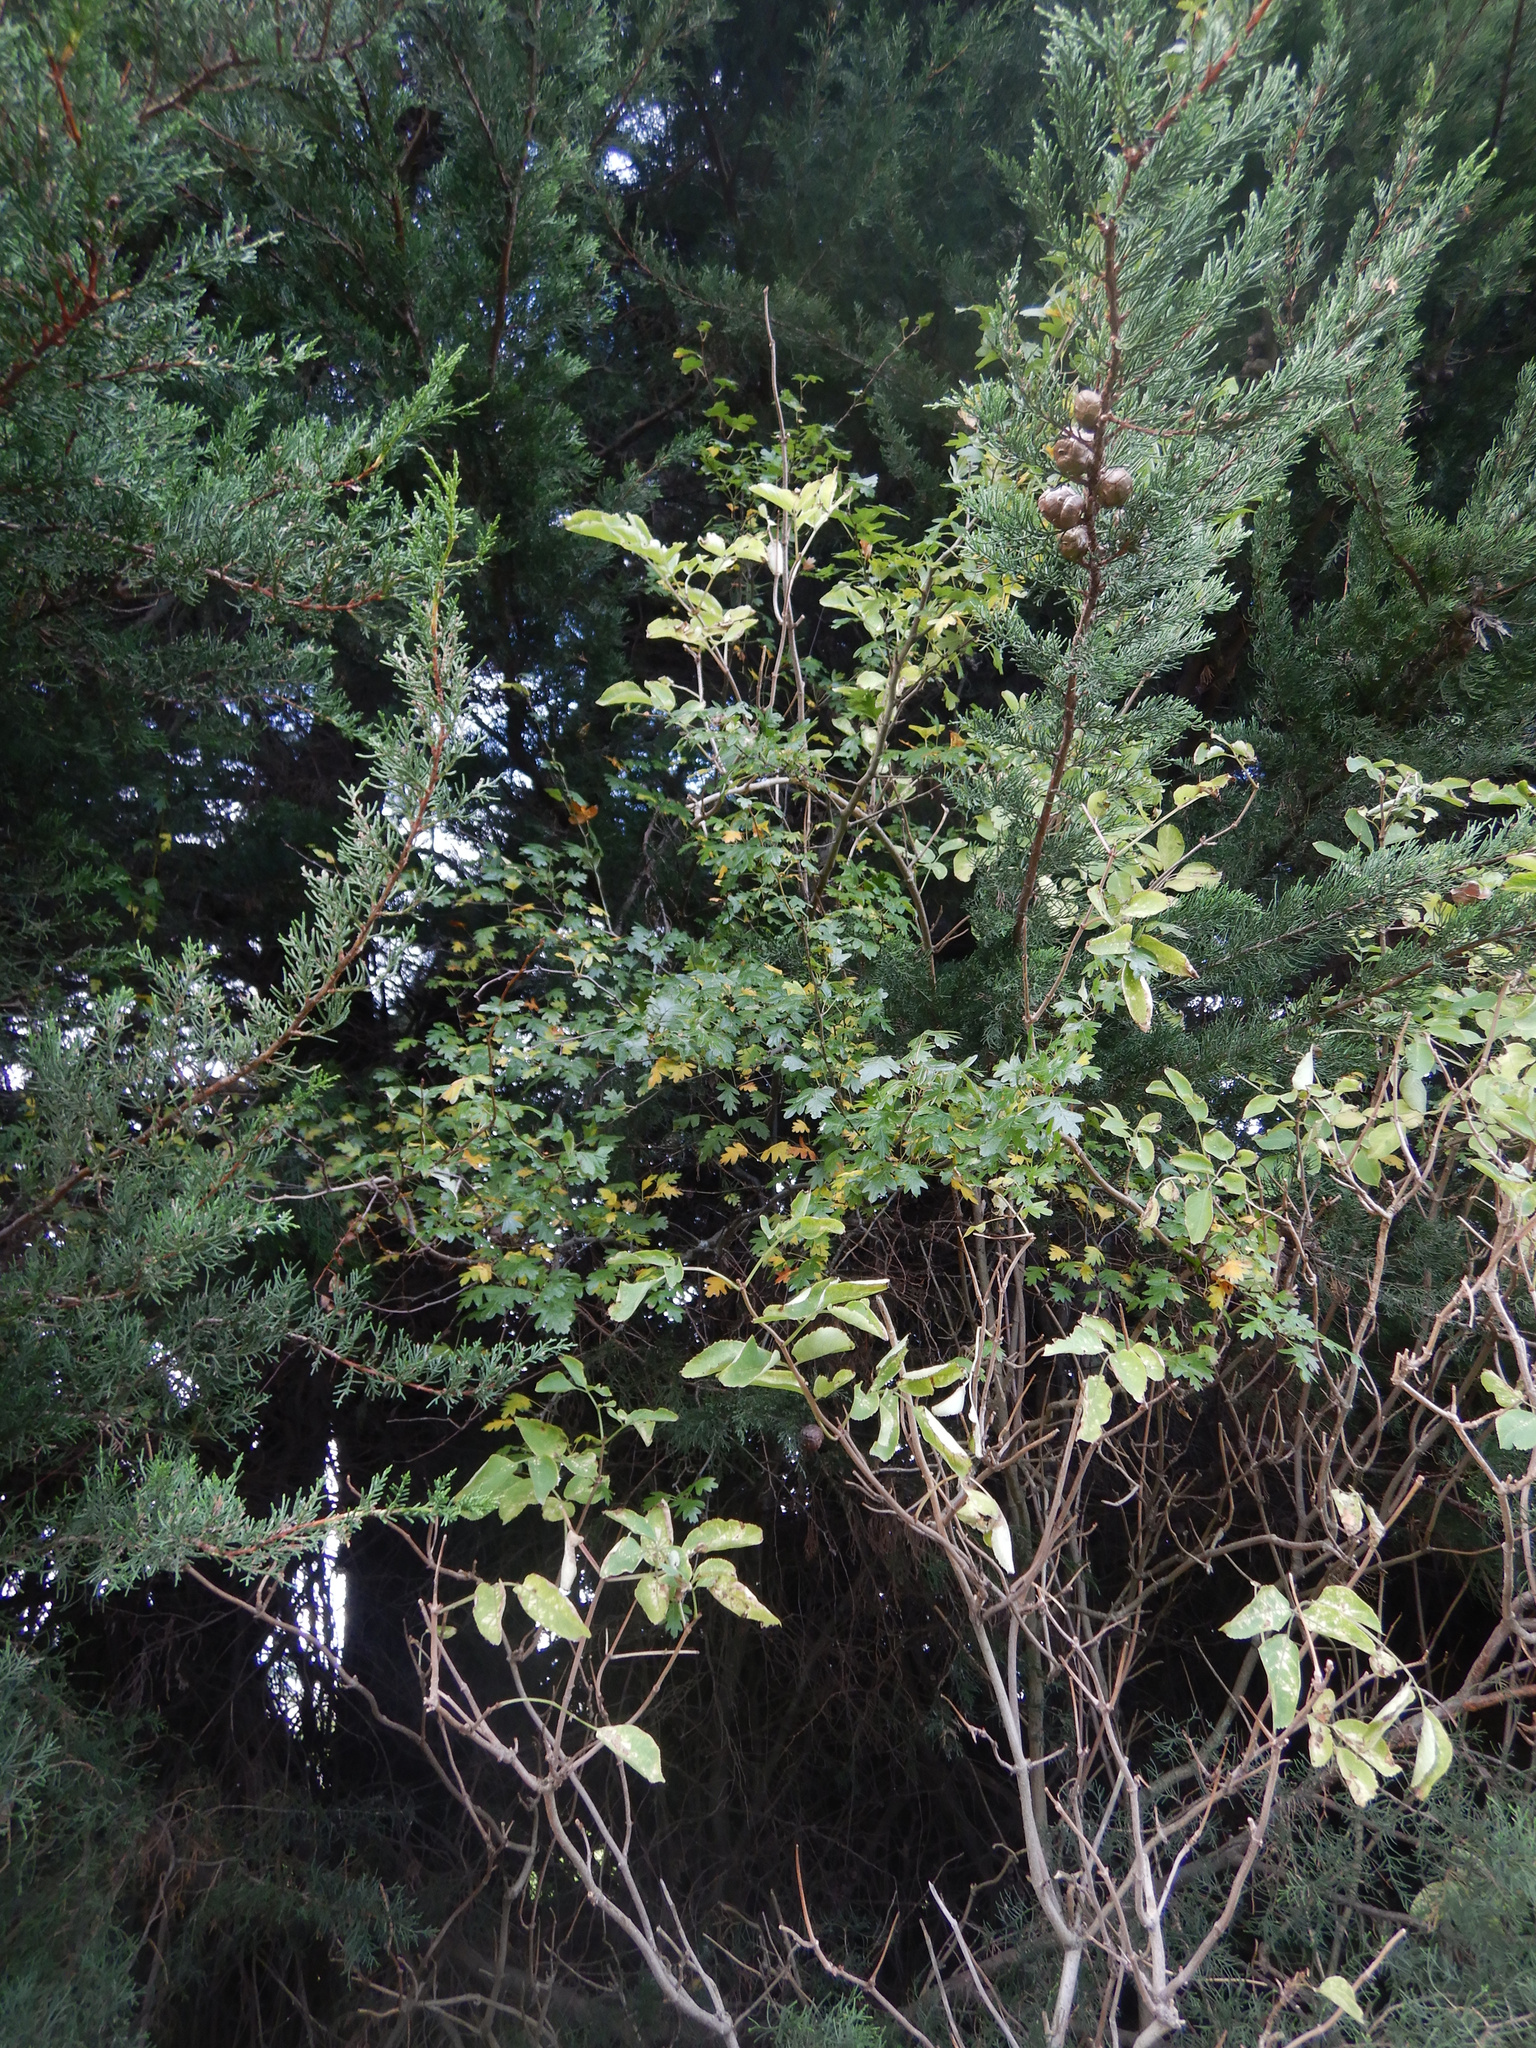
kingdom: Plantae
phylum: Tracheophyta
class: Magnoliopsida
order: Rosales
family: Rosaceae
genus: Crataegus
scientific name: Crataegus monogyna
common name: Hawthorn
